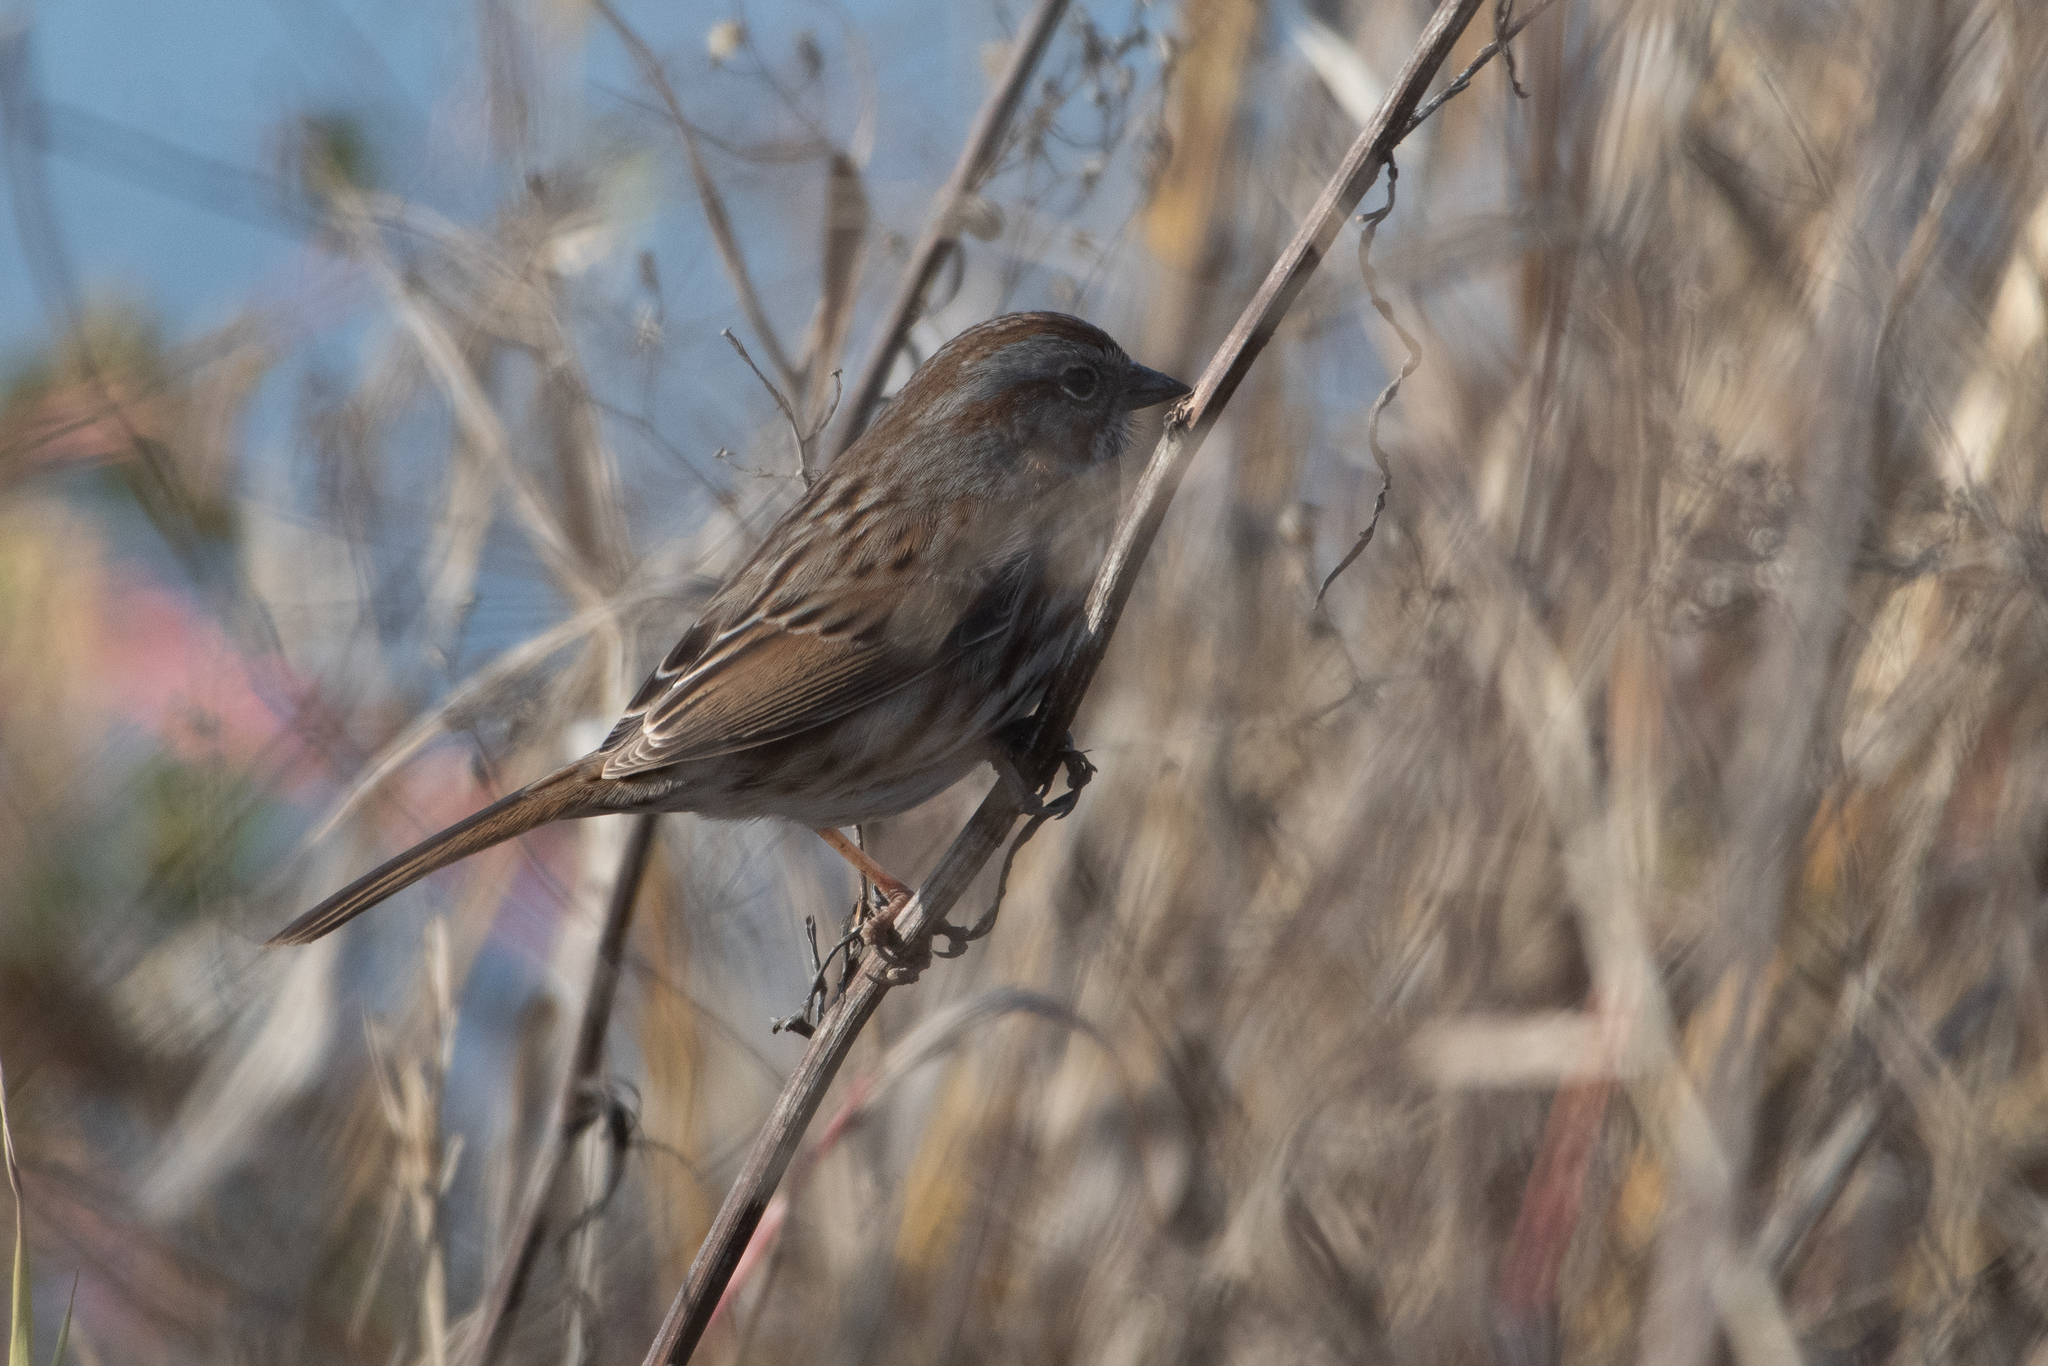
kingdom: Animalia
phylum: Chordata
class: Aves
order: Passeriformes
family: Passerellidae
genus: Melospiza
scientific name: Melospiza melodia
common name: Song sparrow
